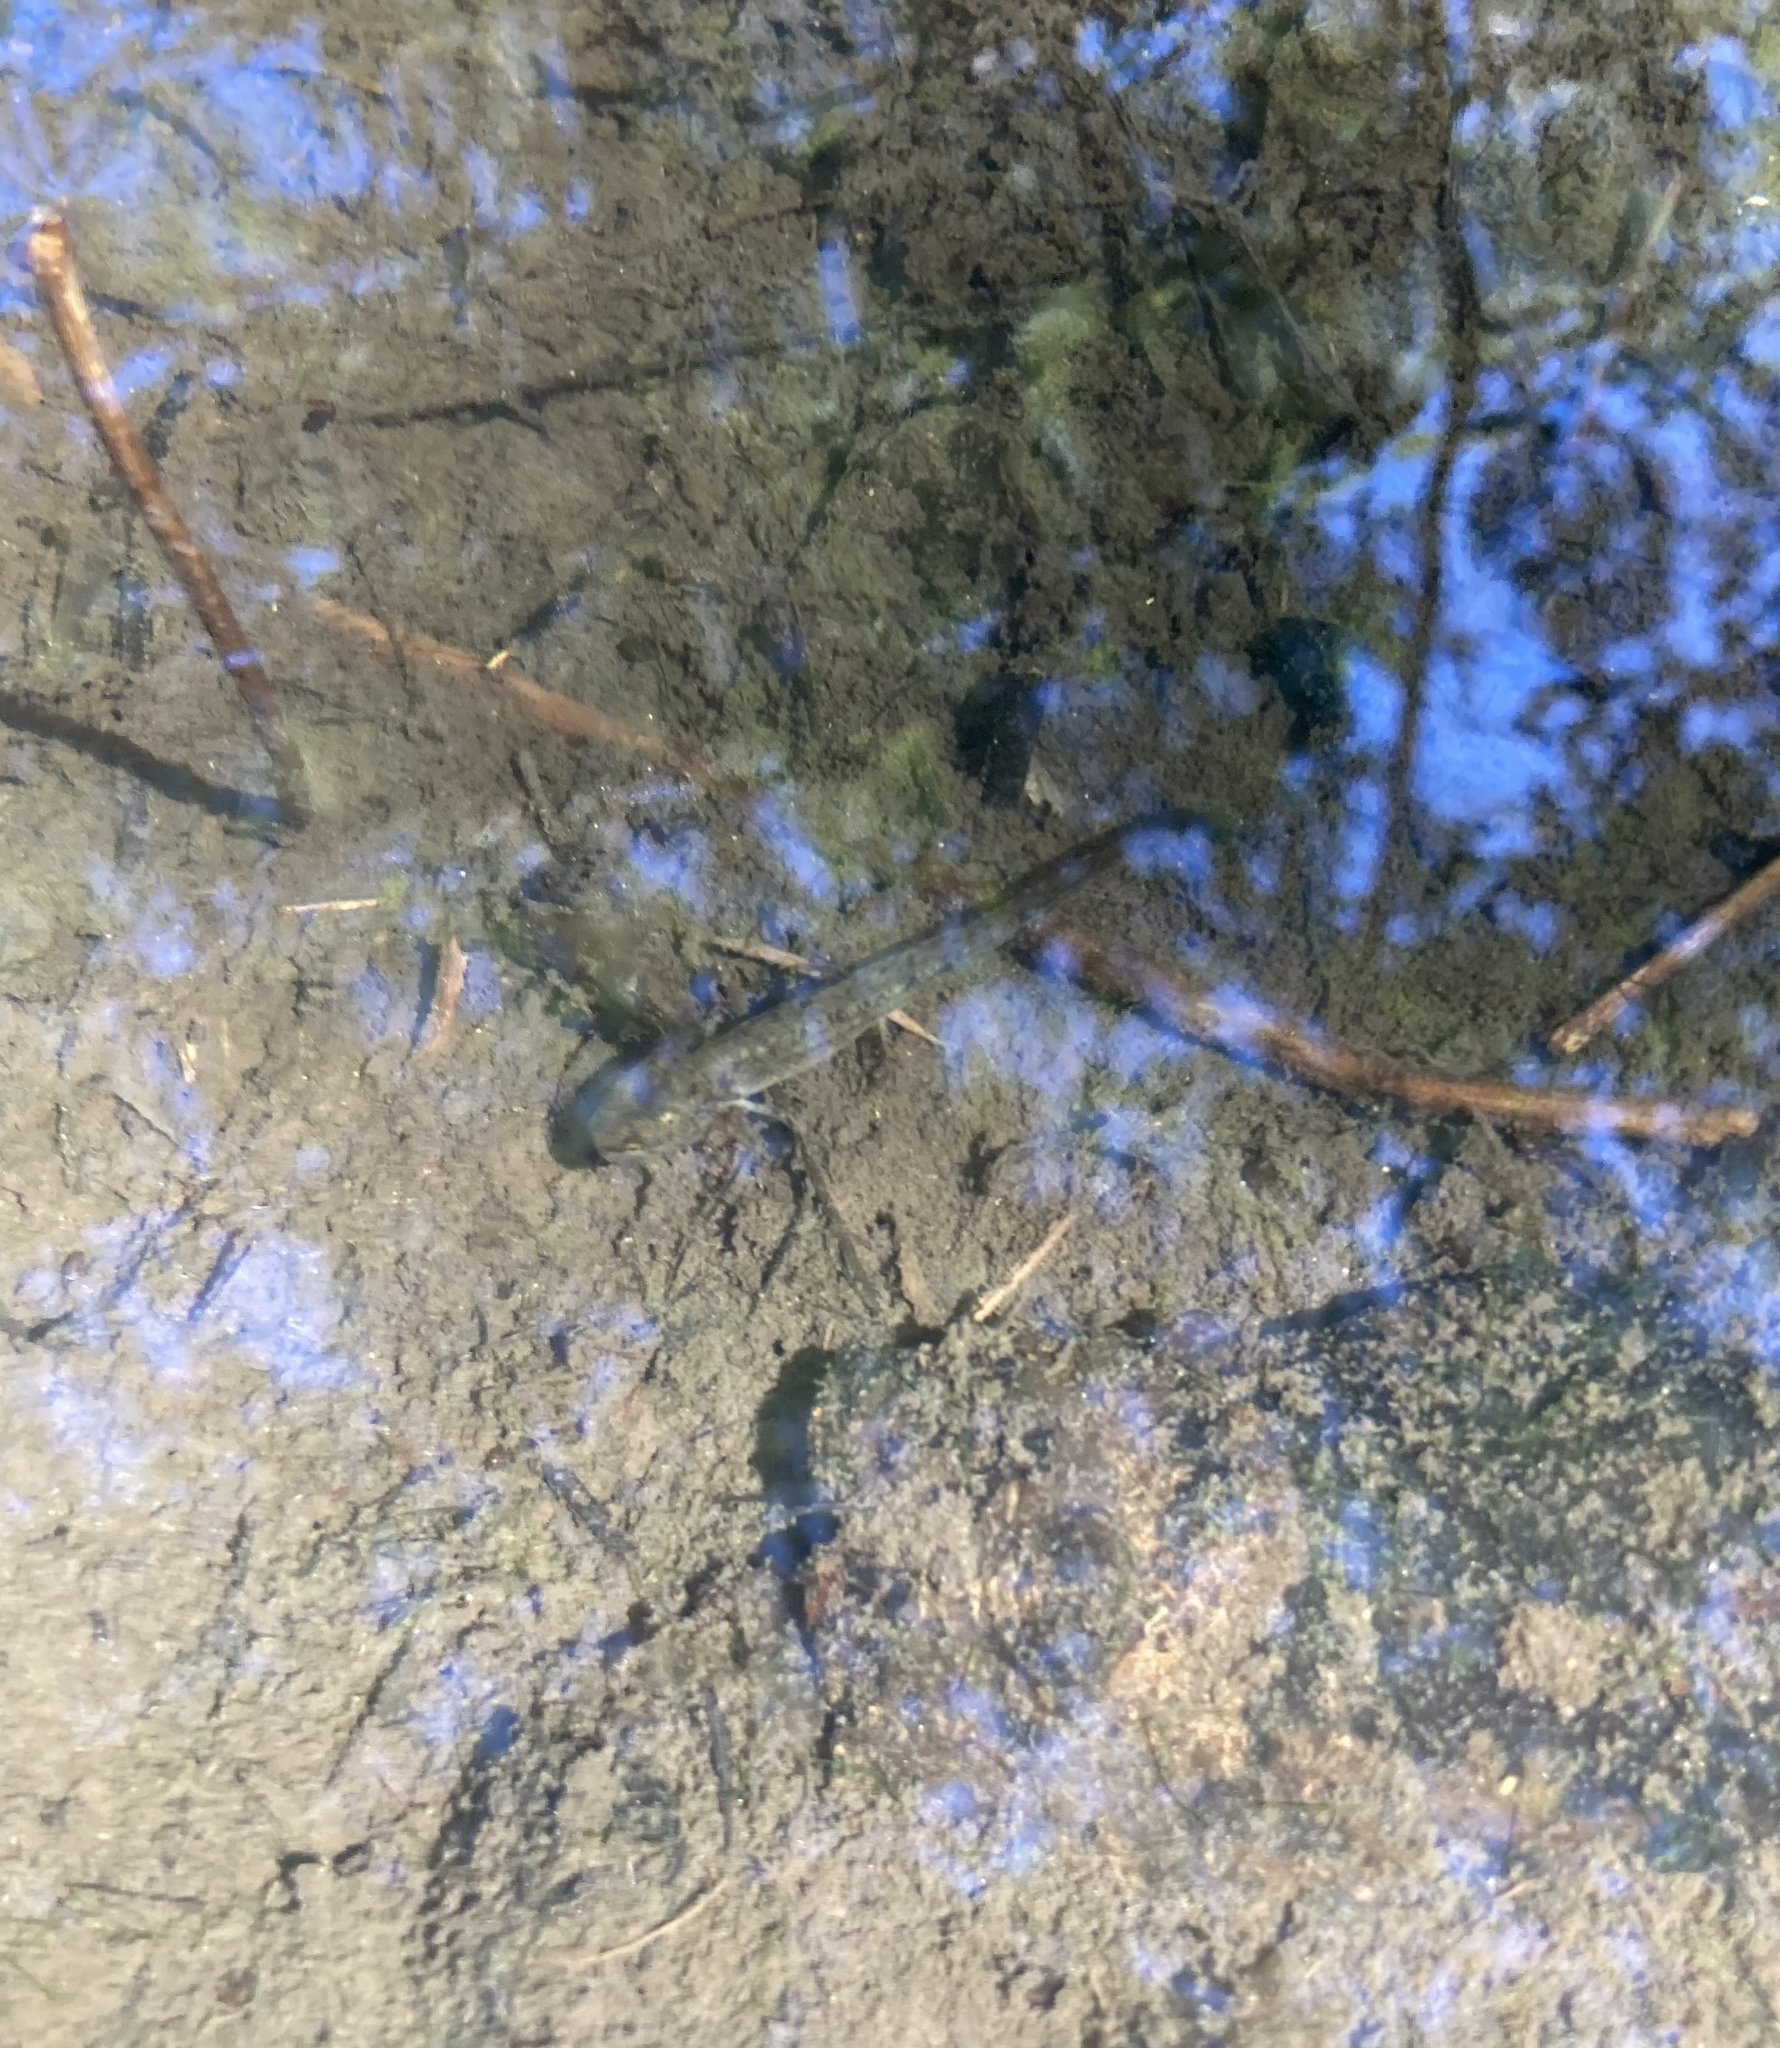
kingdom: Animalia
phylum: Chordata
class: Amphibia
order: Caudata
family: Ambystomatidae
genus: Ambystoma
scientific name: Ambystoma gracile
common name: Northwestern salamander
